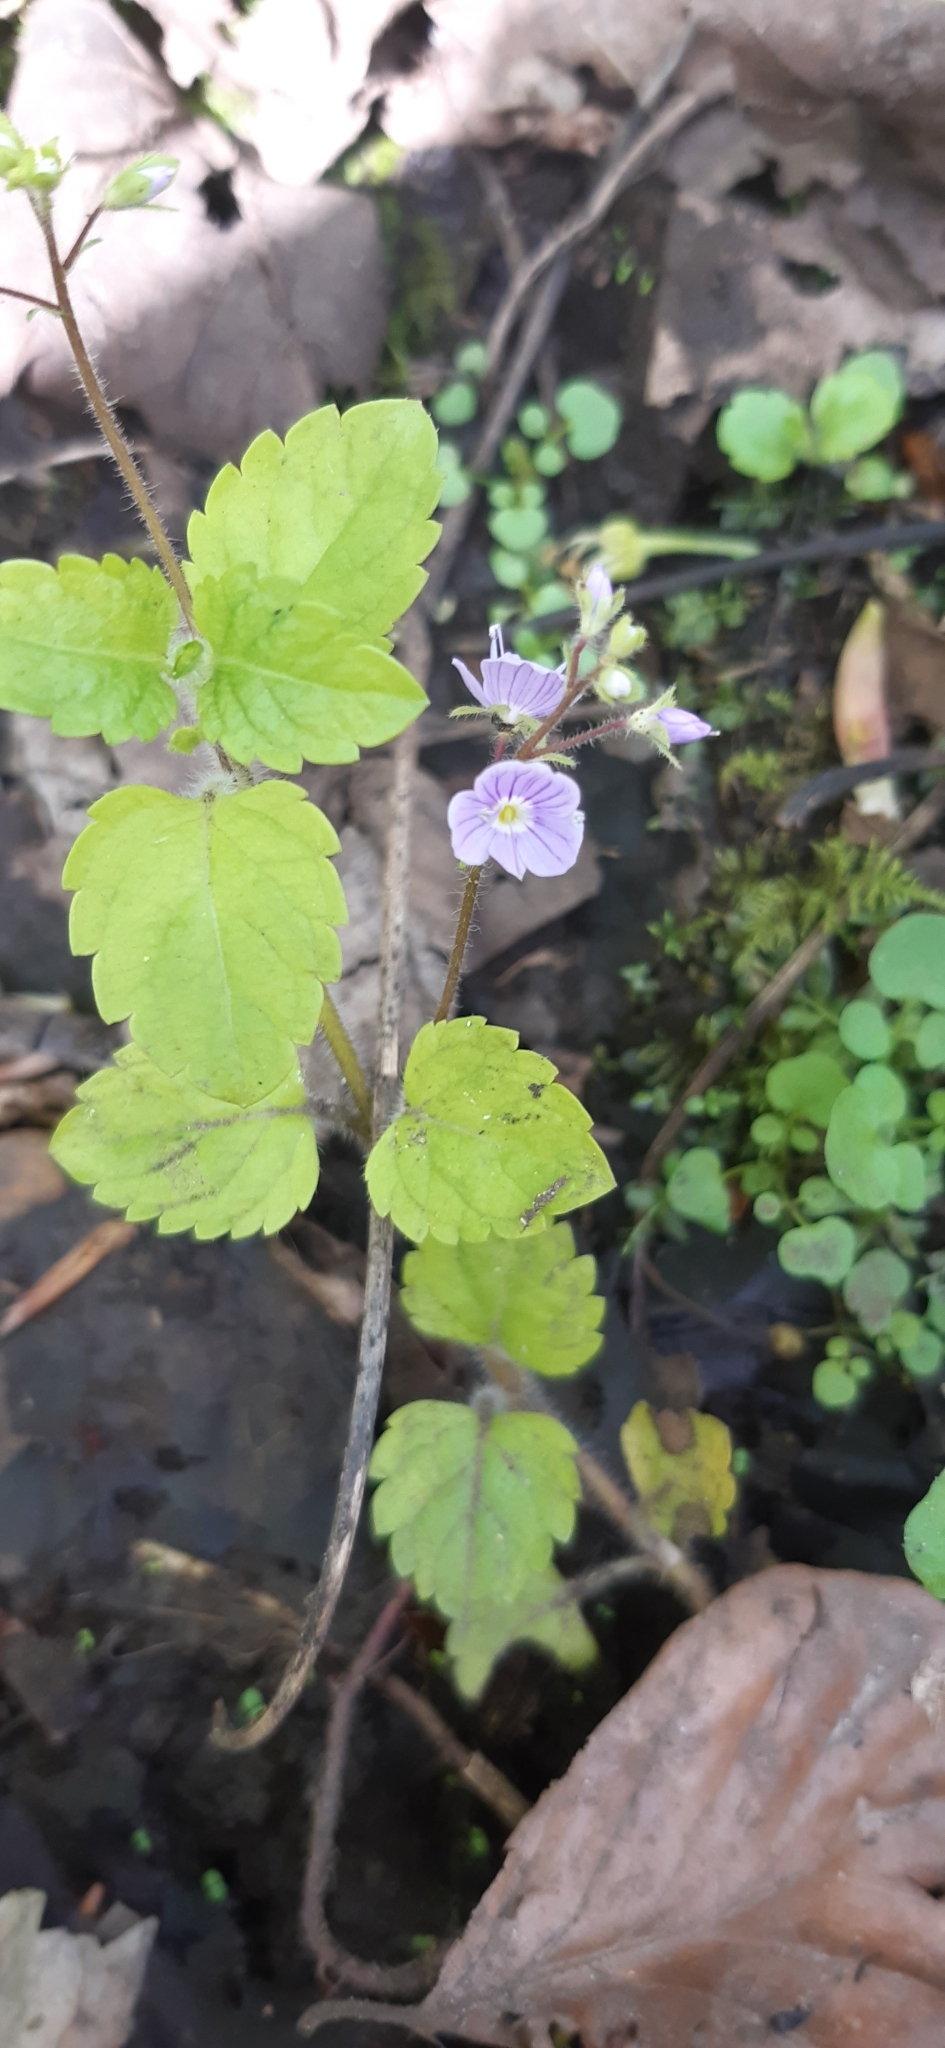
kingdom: Plantae
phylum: Tracheophyta
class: Magnoliopsida
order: Lamiales
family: Plantaginaceae
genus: Veronica
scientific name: Veronica montana
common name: Wood speedwell
